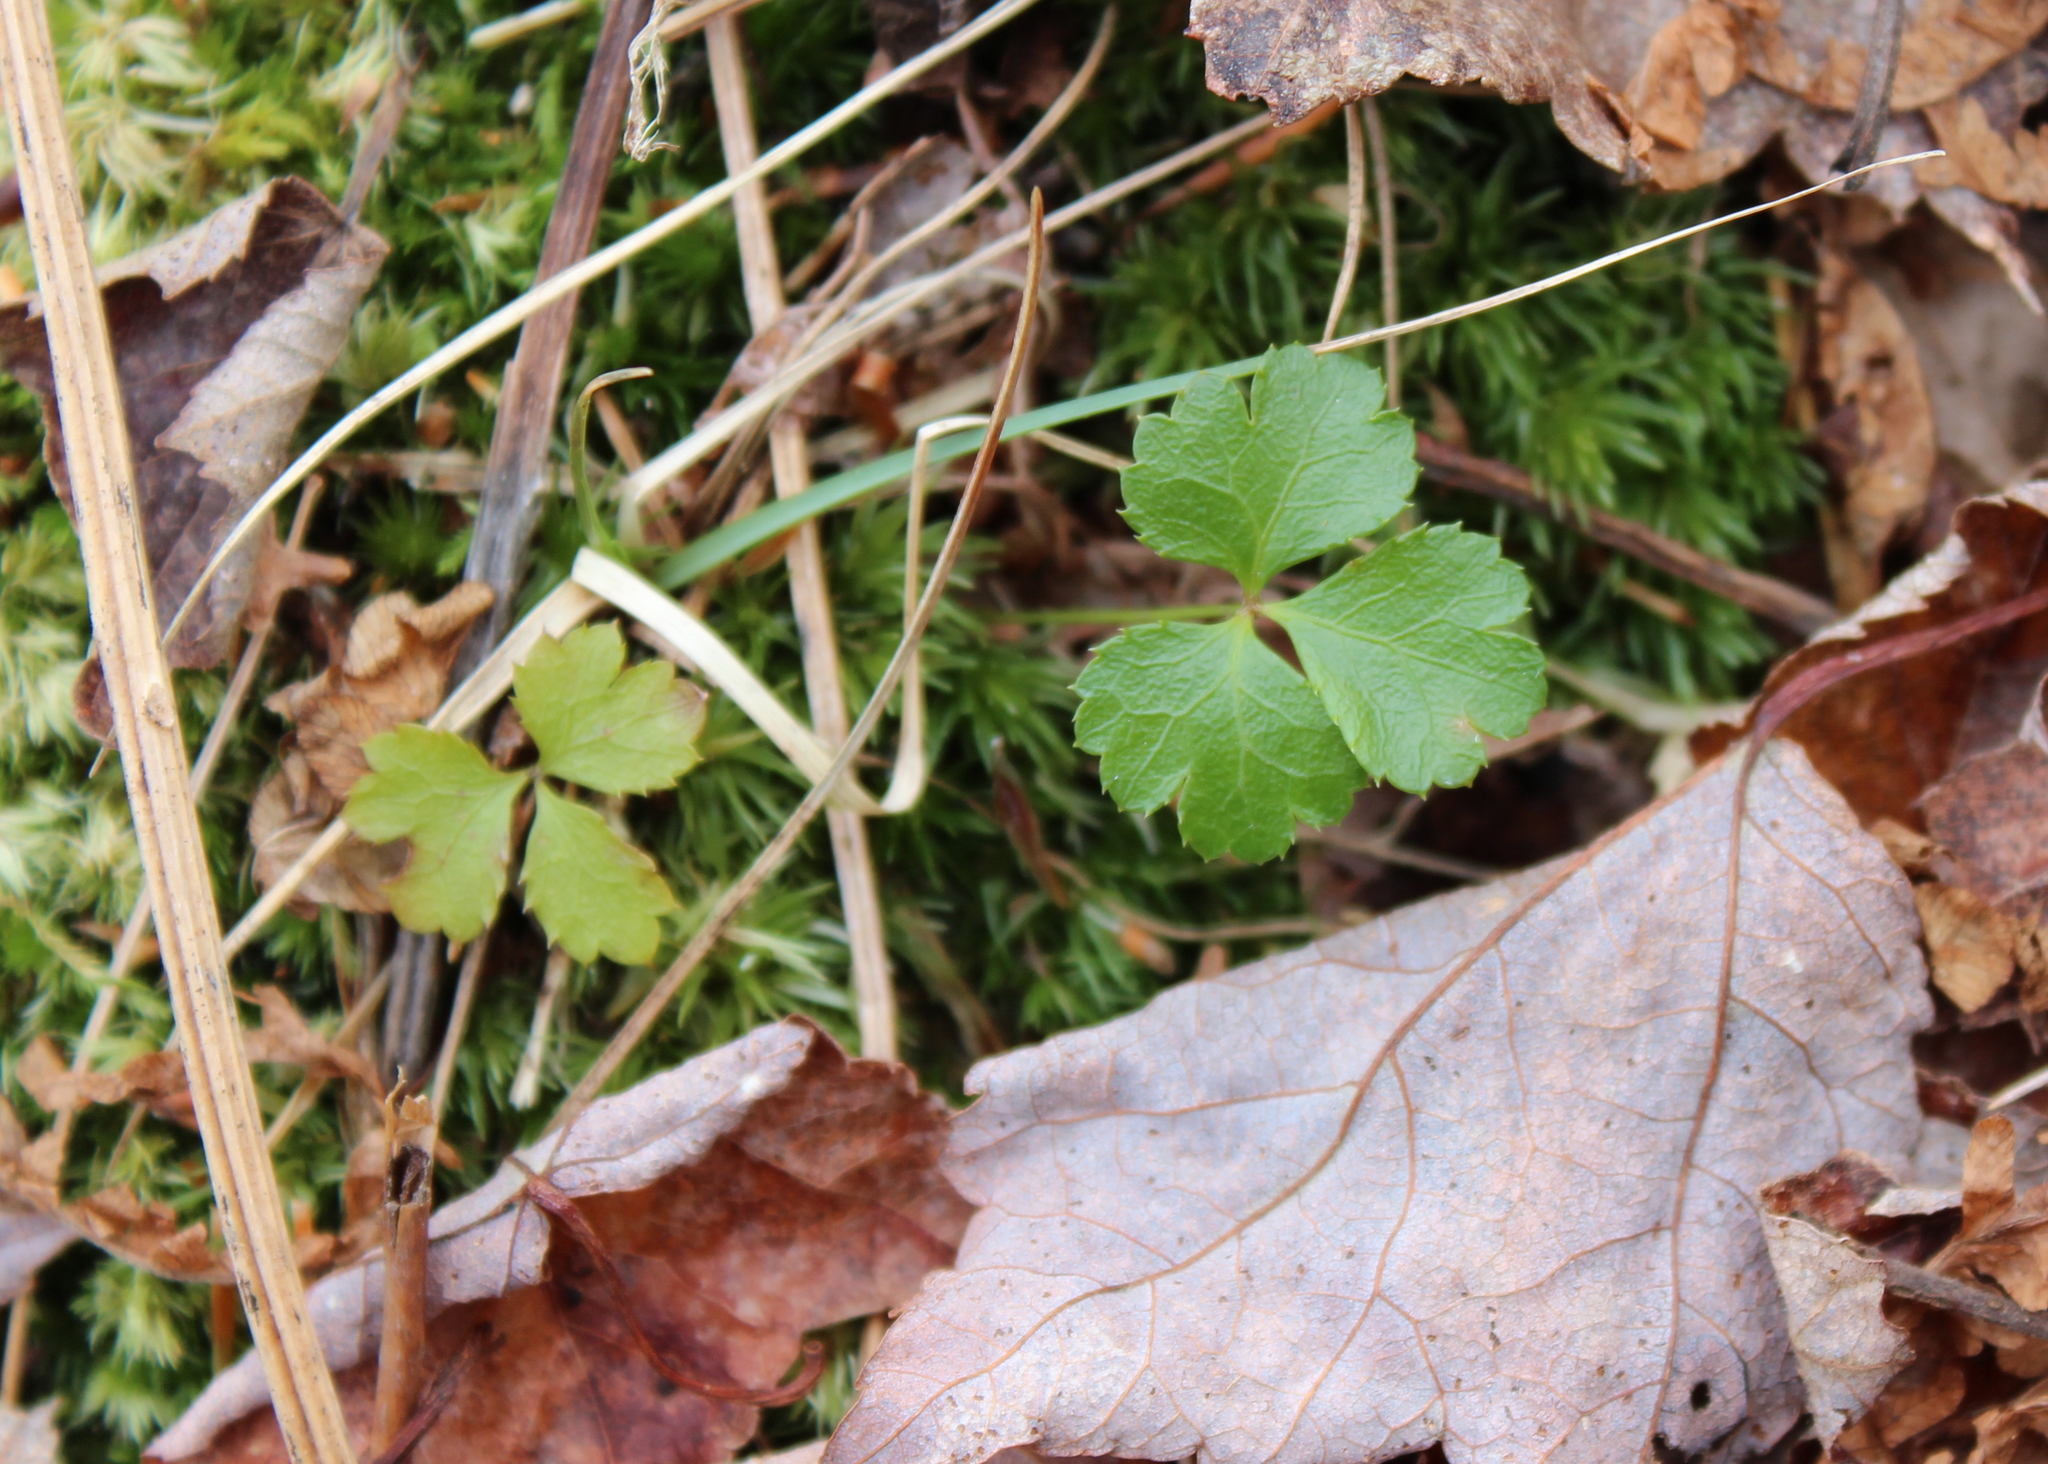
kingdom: Plantae
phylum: Tracheophyta
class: Magnoliopsida
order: Ranunculales
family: Ranunculaceae
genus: Coptis
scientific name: Coptis trifolia
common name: Canker-root
